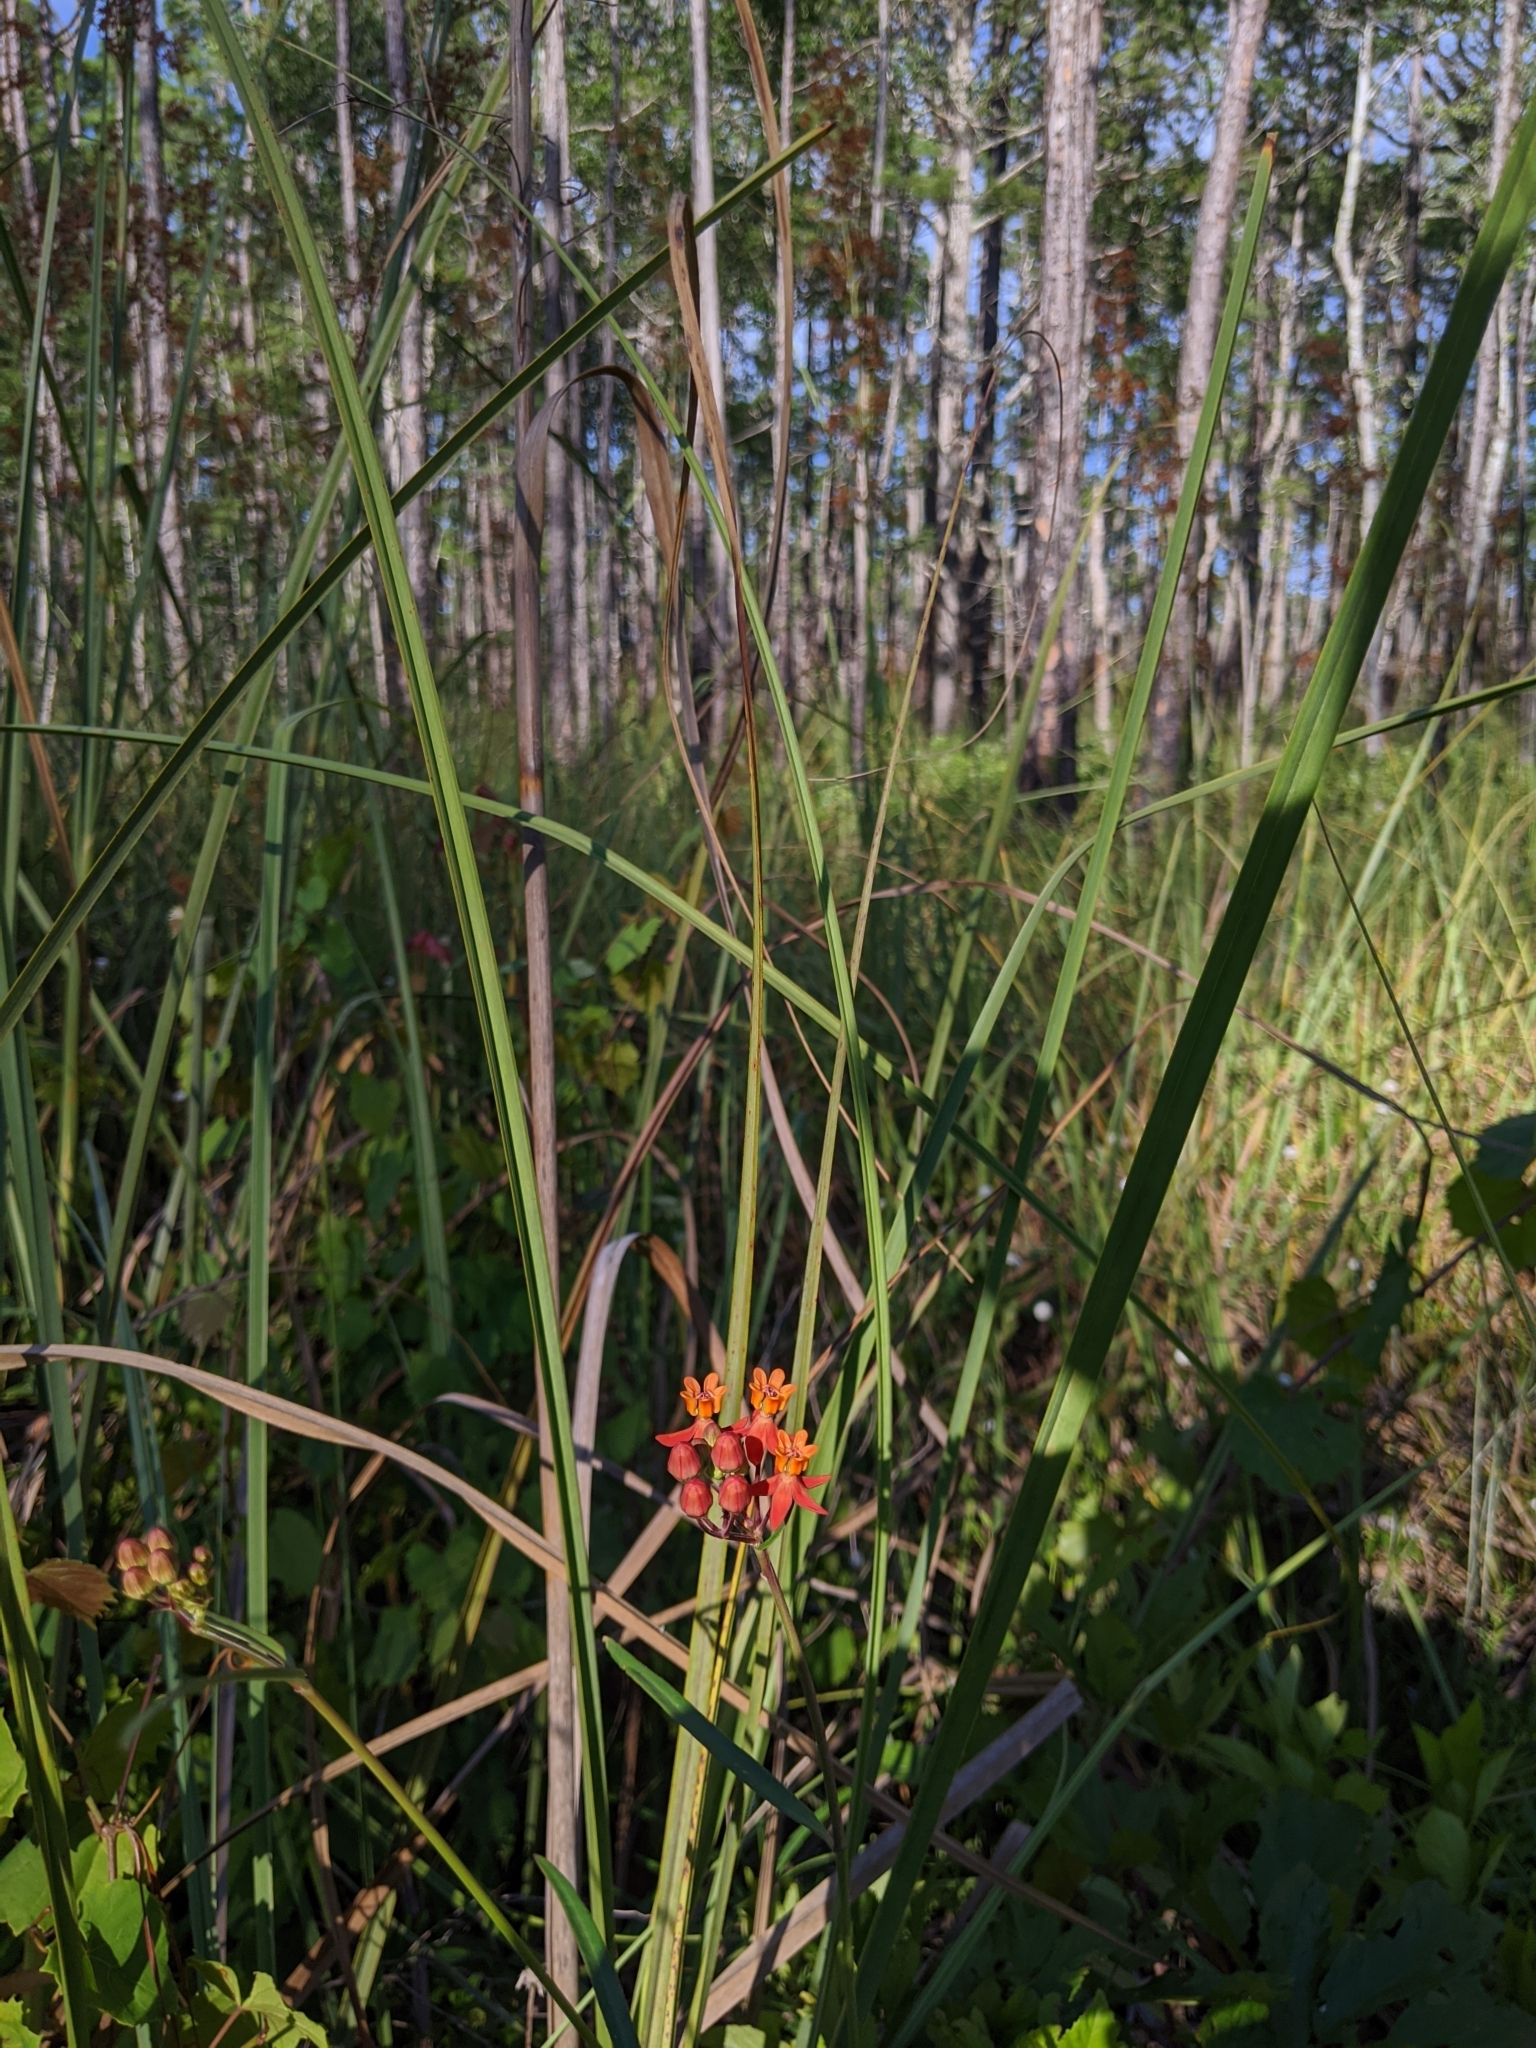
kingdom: Plantae
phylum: Tracheophyta
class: Magnoliopsida
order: Gentianales
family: Apocynaceae
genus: Asclepias
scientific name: Asclepias lanceolata
